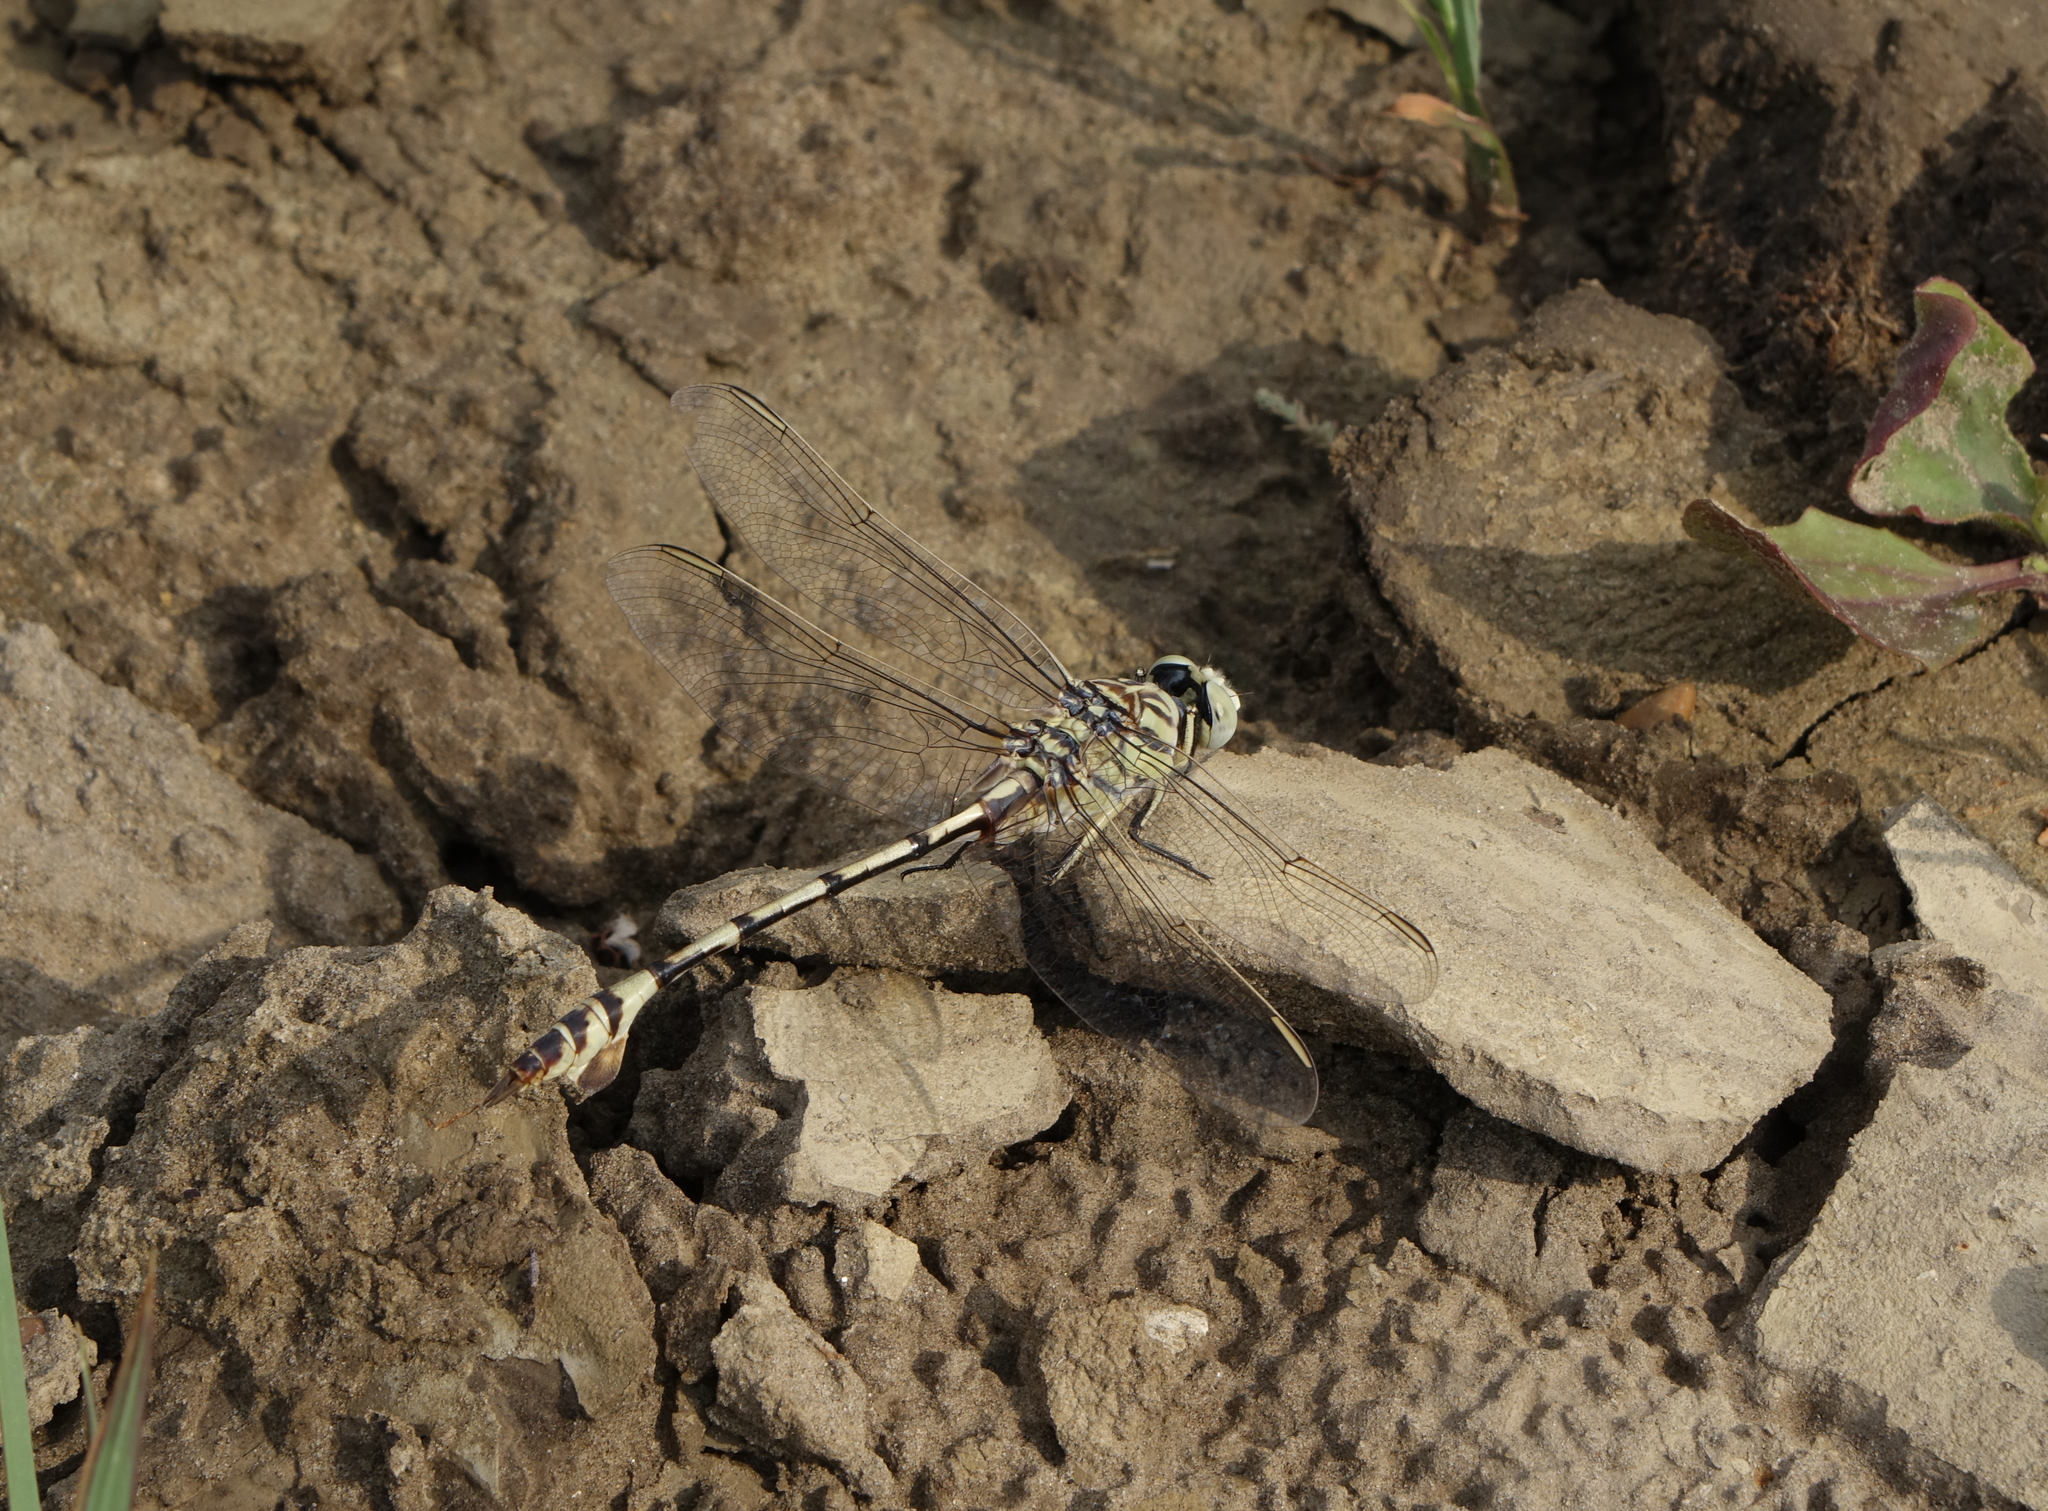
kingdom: Animalia
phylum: Arthropoda
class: Insecta
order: Odonata
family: Gomphidae
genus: Lindenia
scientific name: Lindenia tetraphylla
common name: Bladetail
